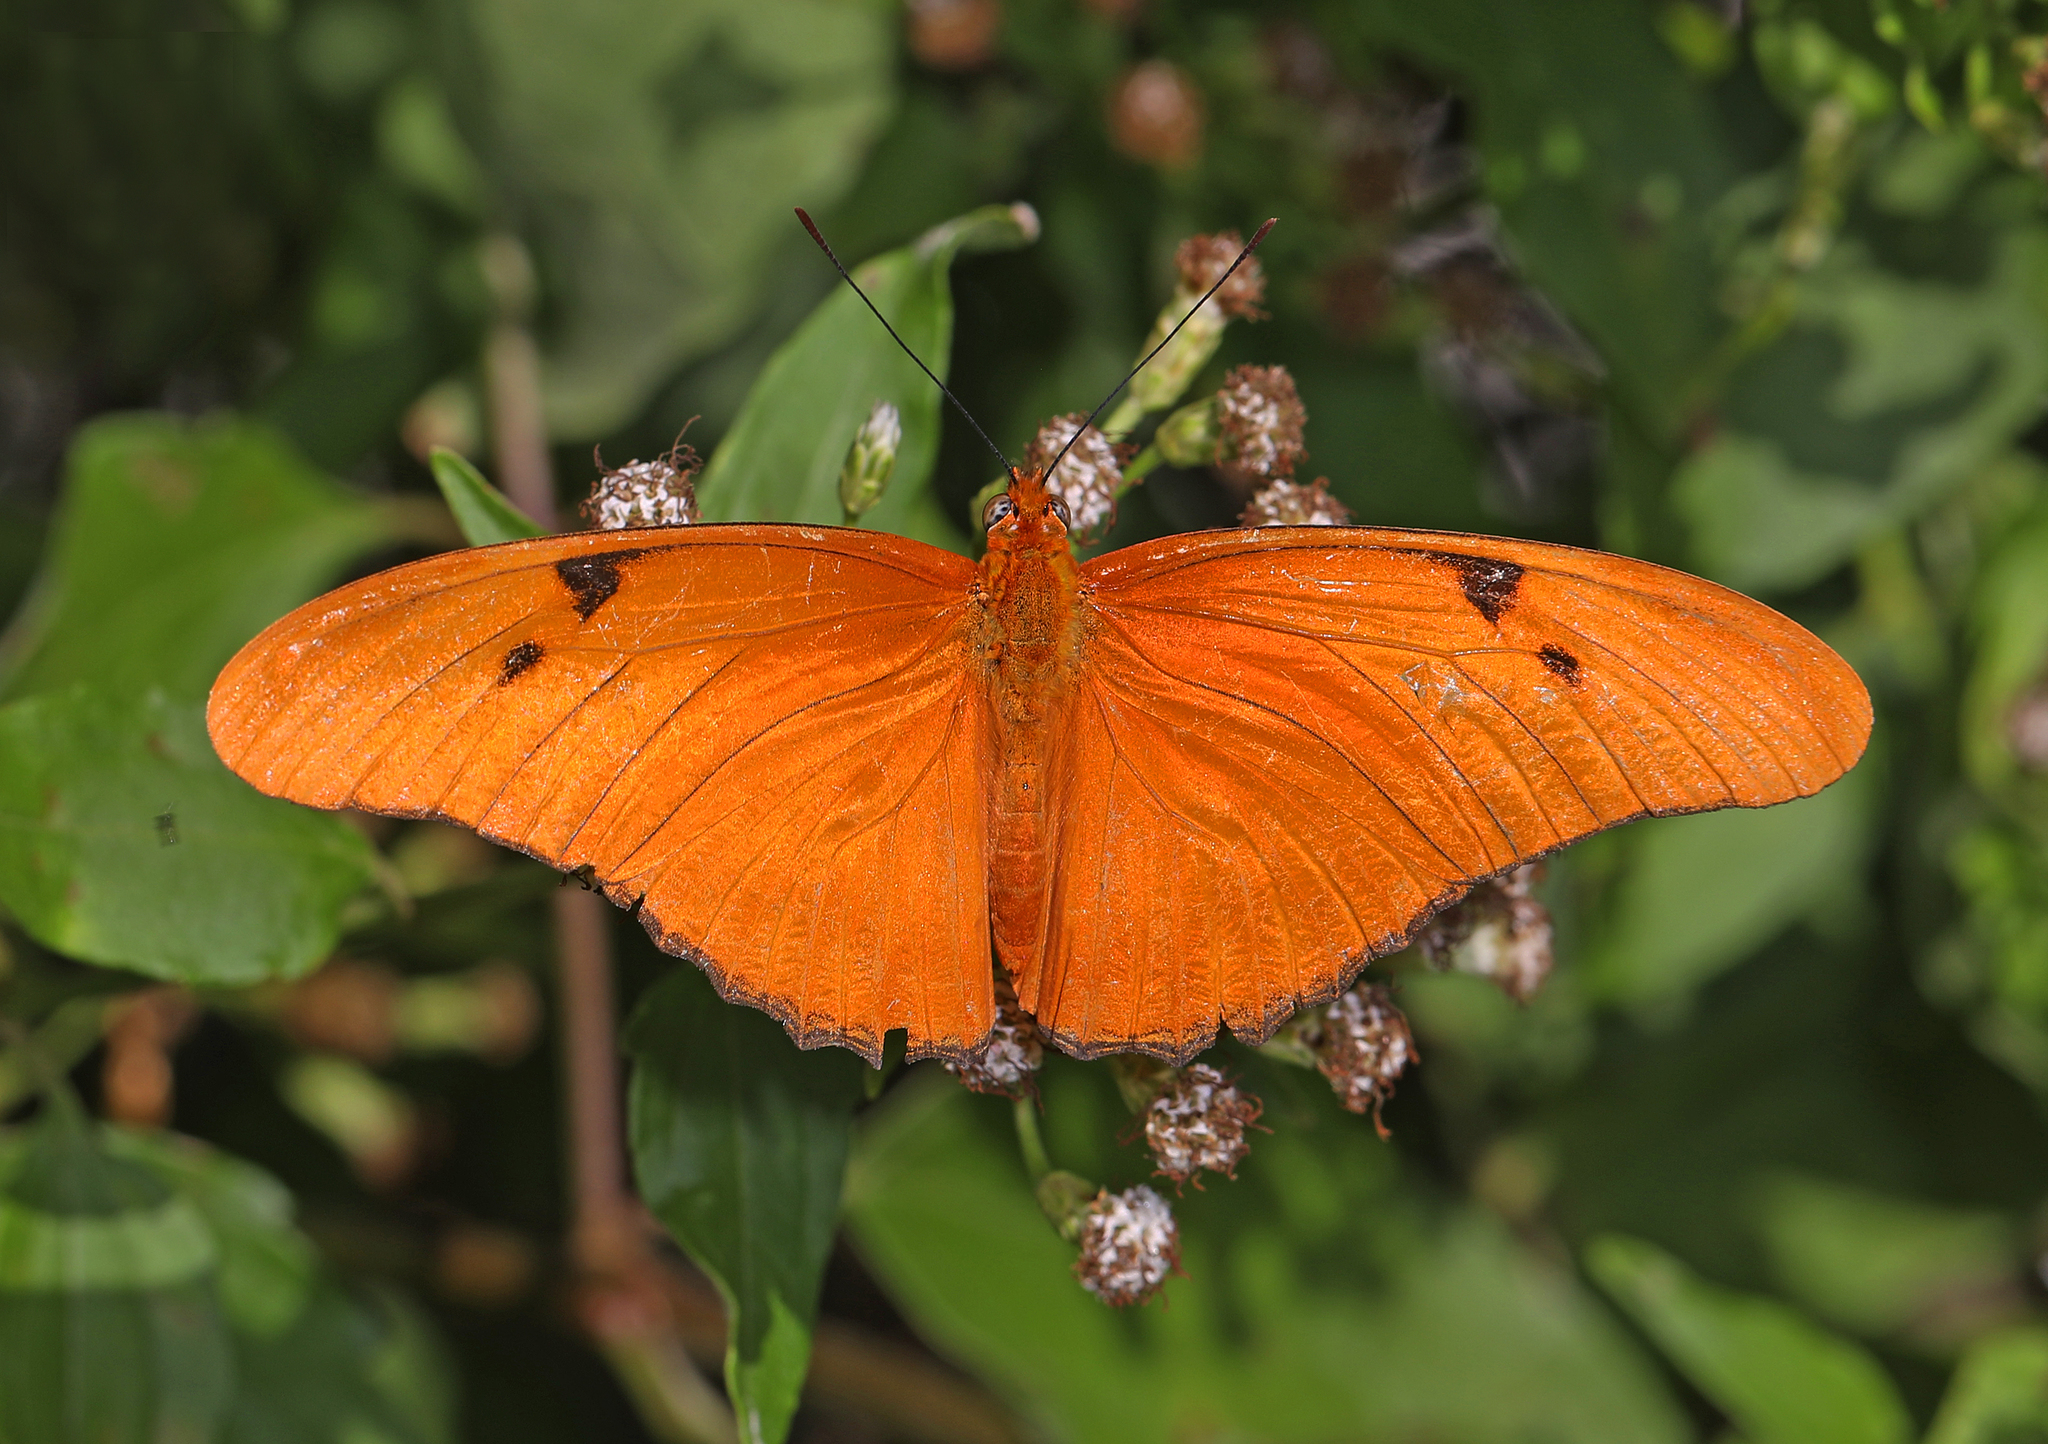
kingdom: Animalia
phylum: Arthropoda
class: Insecta
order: Lepidoptera
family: Nymphalidae
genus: Dryas
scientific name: Dryas iulia
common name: Flambeau
